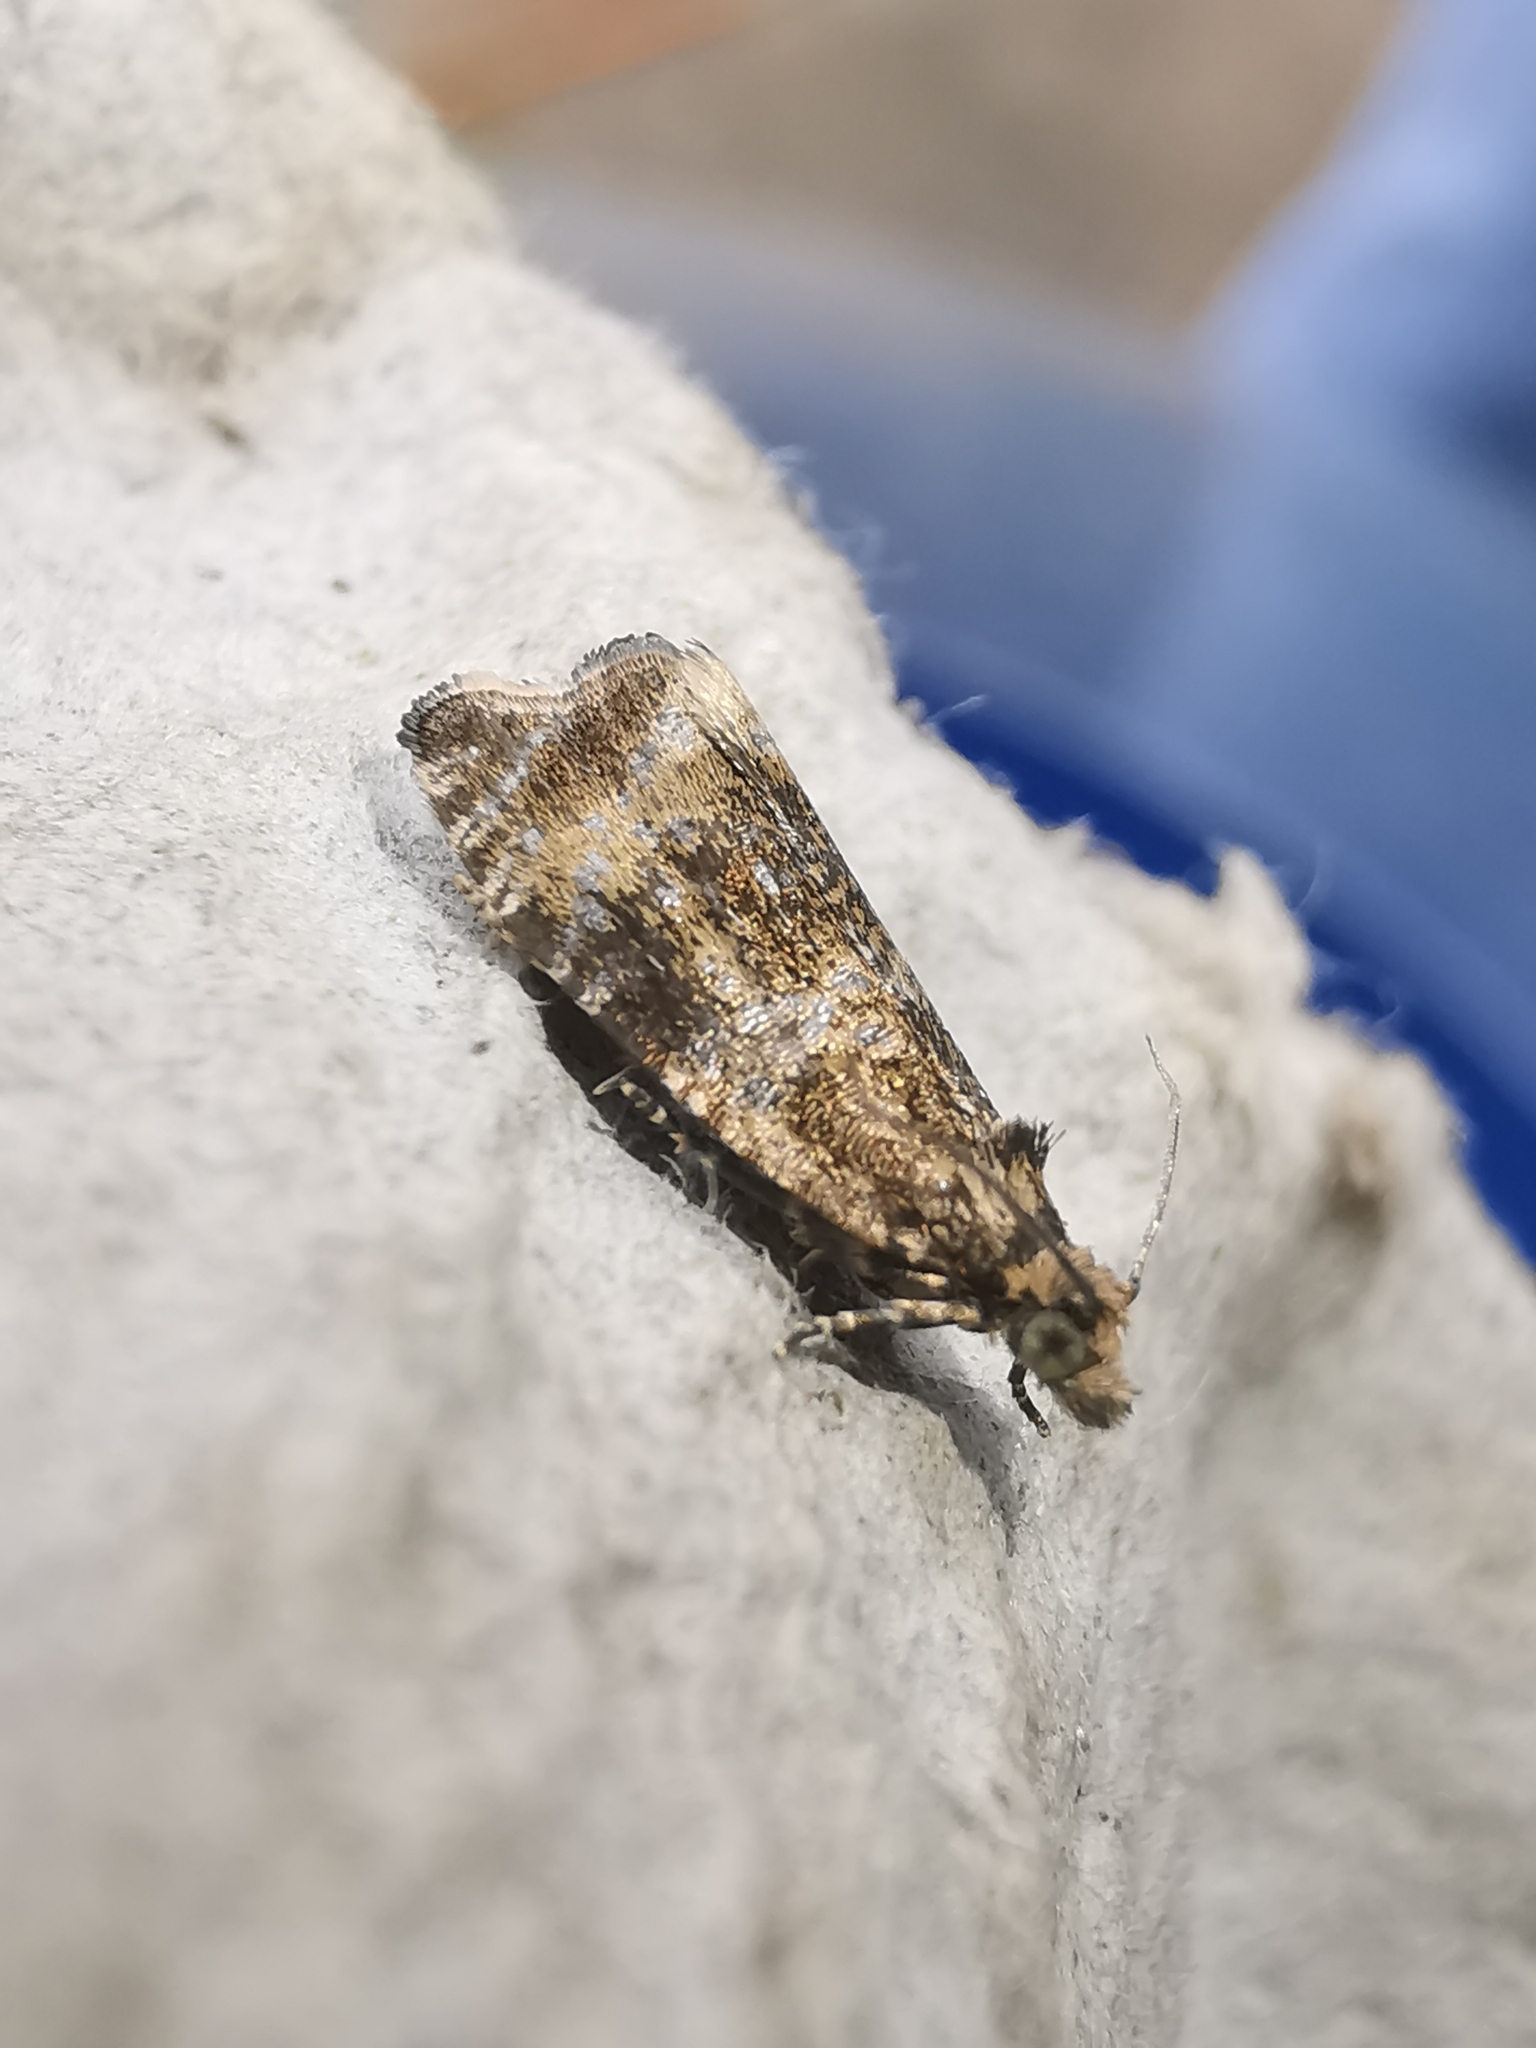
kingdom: Animalia
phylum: Arthropoda
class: Insecta
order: Lepidoptera
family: Tortricidae
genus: Syricoris
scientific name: Syricoris lacunana
